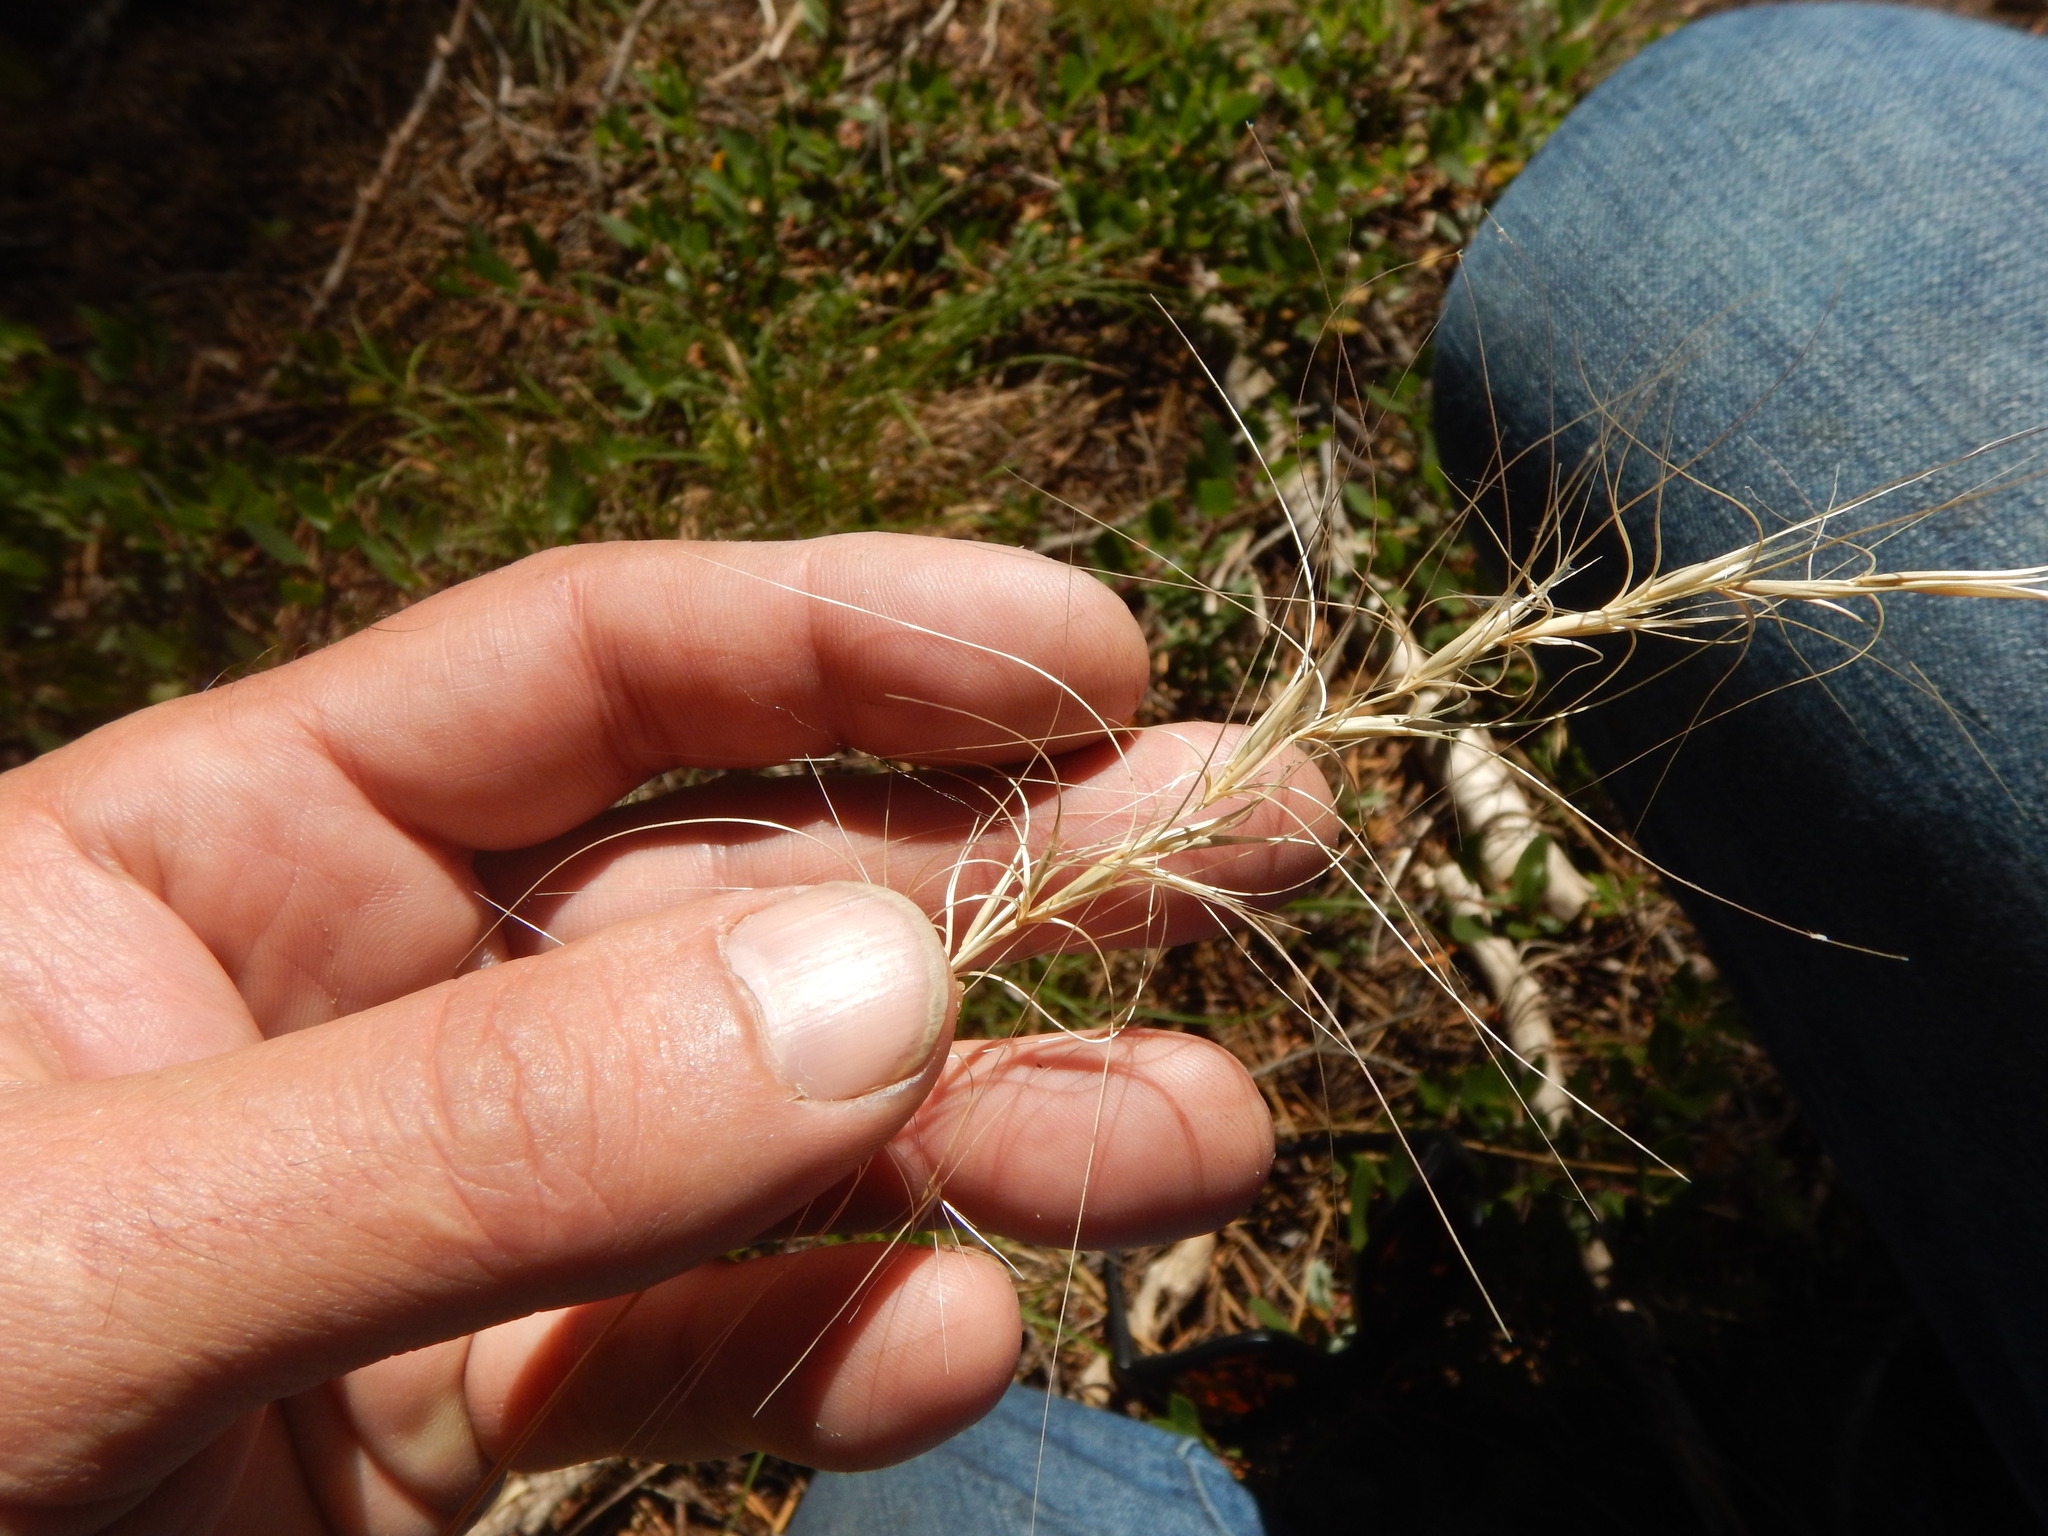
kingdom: Plantae
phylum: Tracheophyta
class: Liliopsida
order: Poales
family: Poaceae
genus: Elymus
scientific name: Elymus elymoides
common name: Bottlebrush squirreltail
